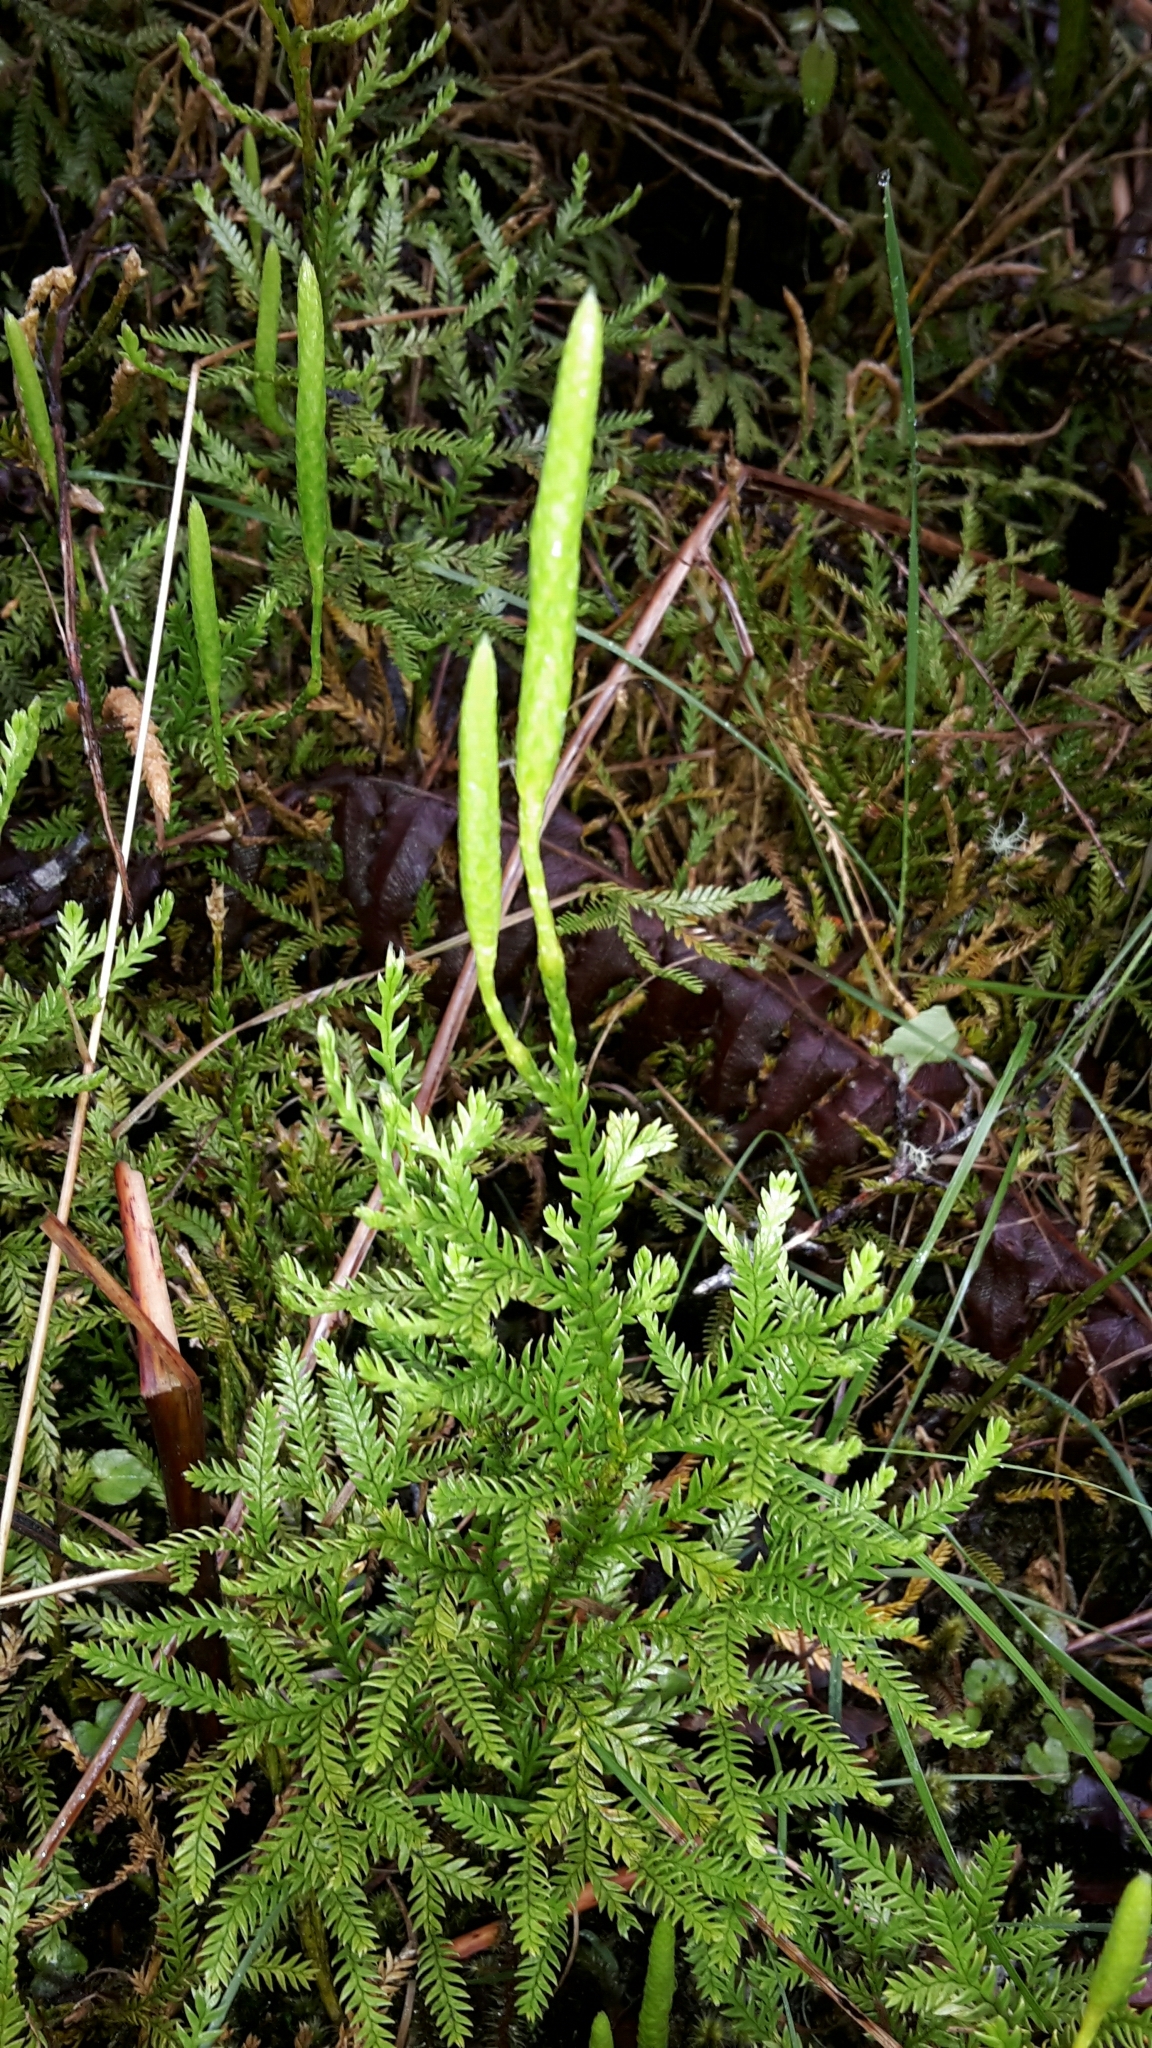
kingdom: Plantae
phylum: Tracheophyta
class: Lycopodiopsida
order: Lycopodiales
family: Lycopodiaceae
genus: Diphasium
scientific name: Diphasium scariosum
